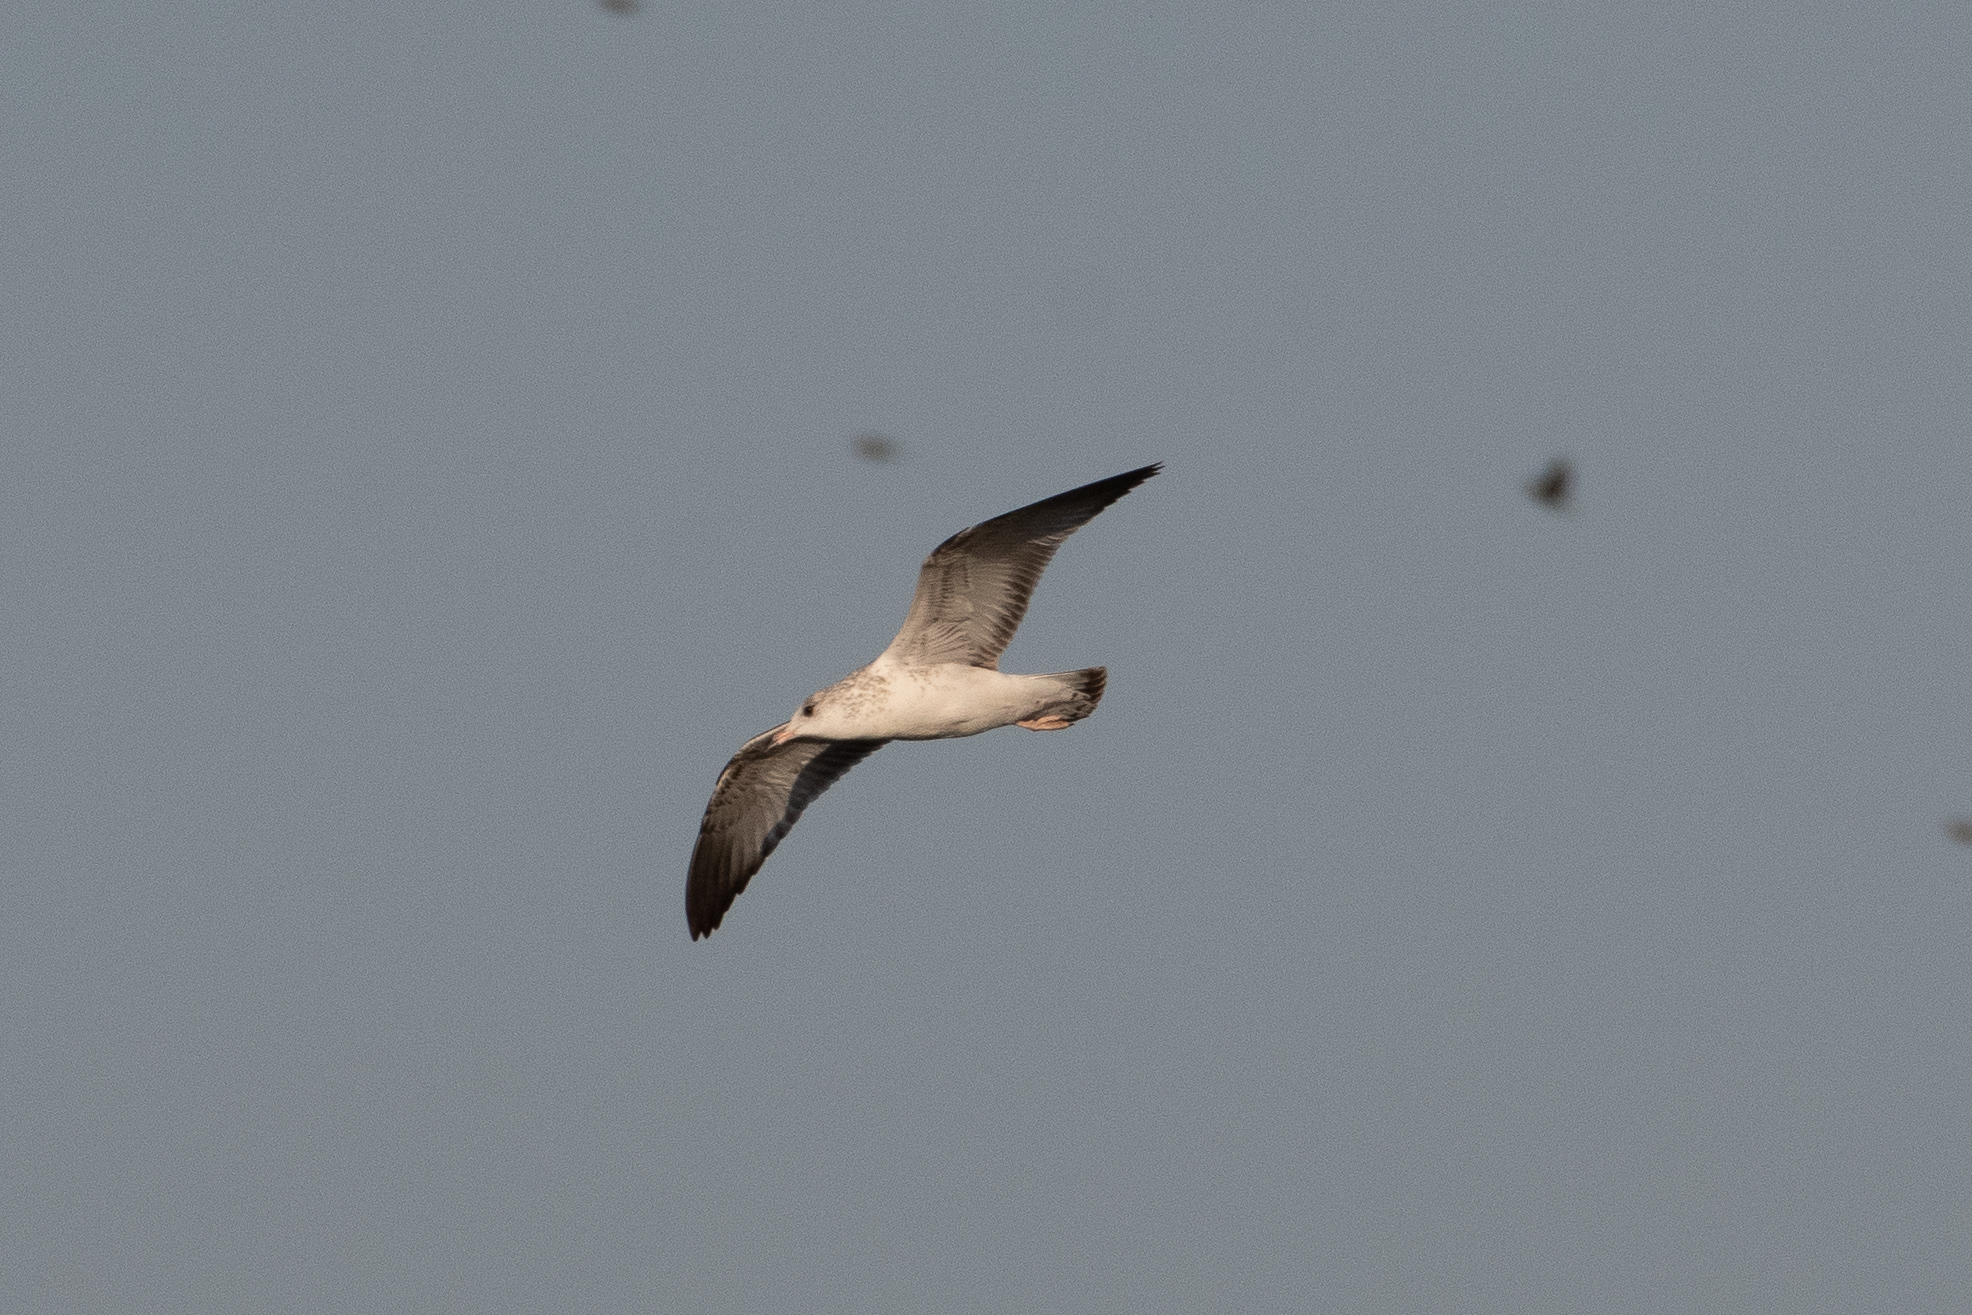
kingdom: Animalia
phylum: Chordata
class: Aves
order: Charadriiformes
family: Laridae
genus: Larus
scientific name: Larus delawarensis
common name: Ring-billed gull
